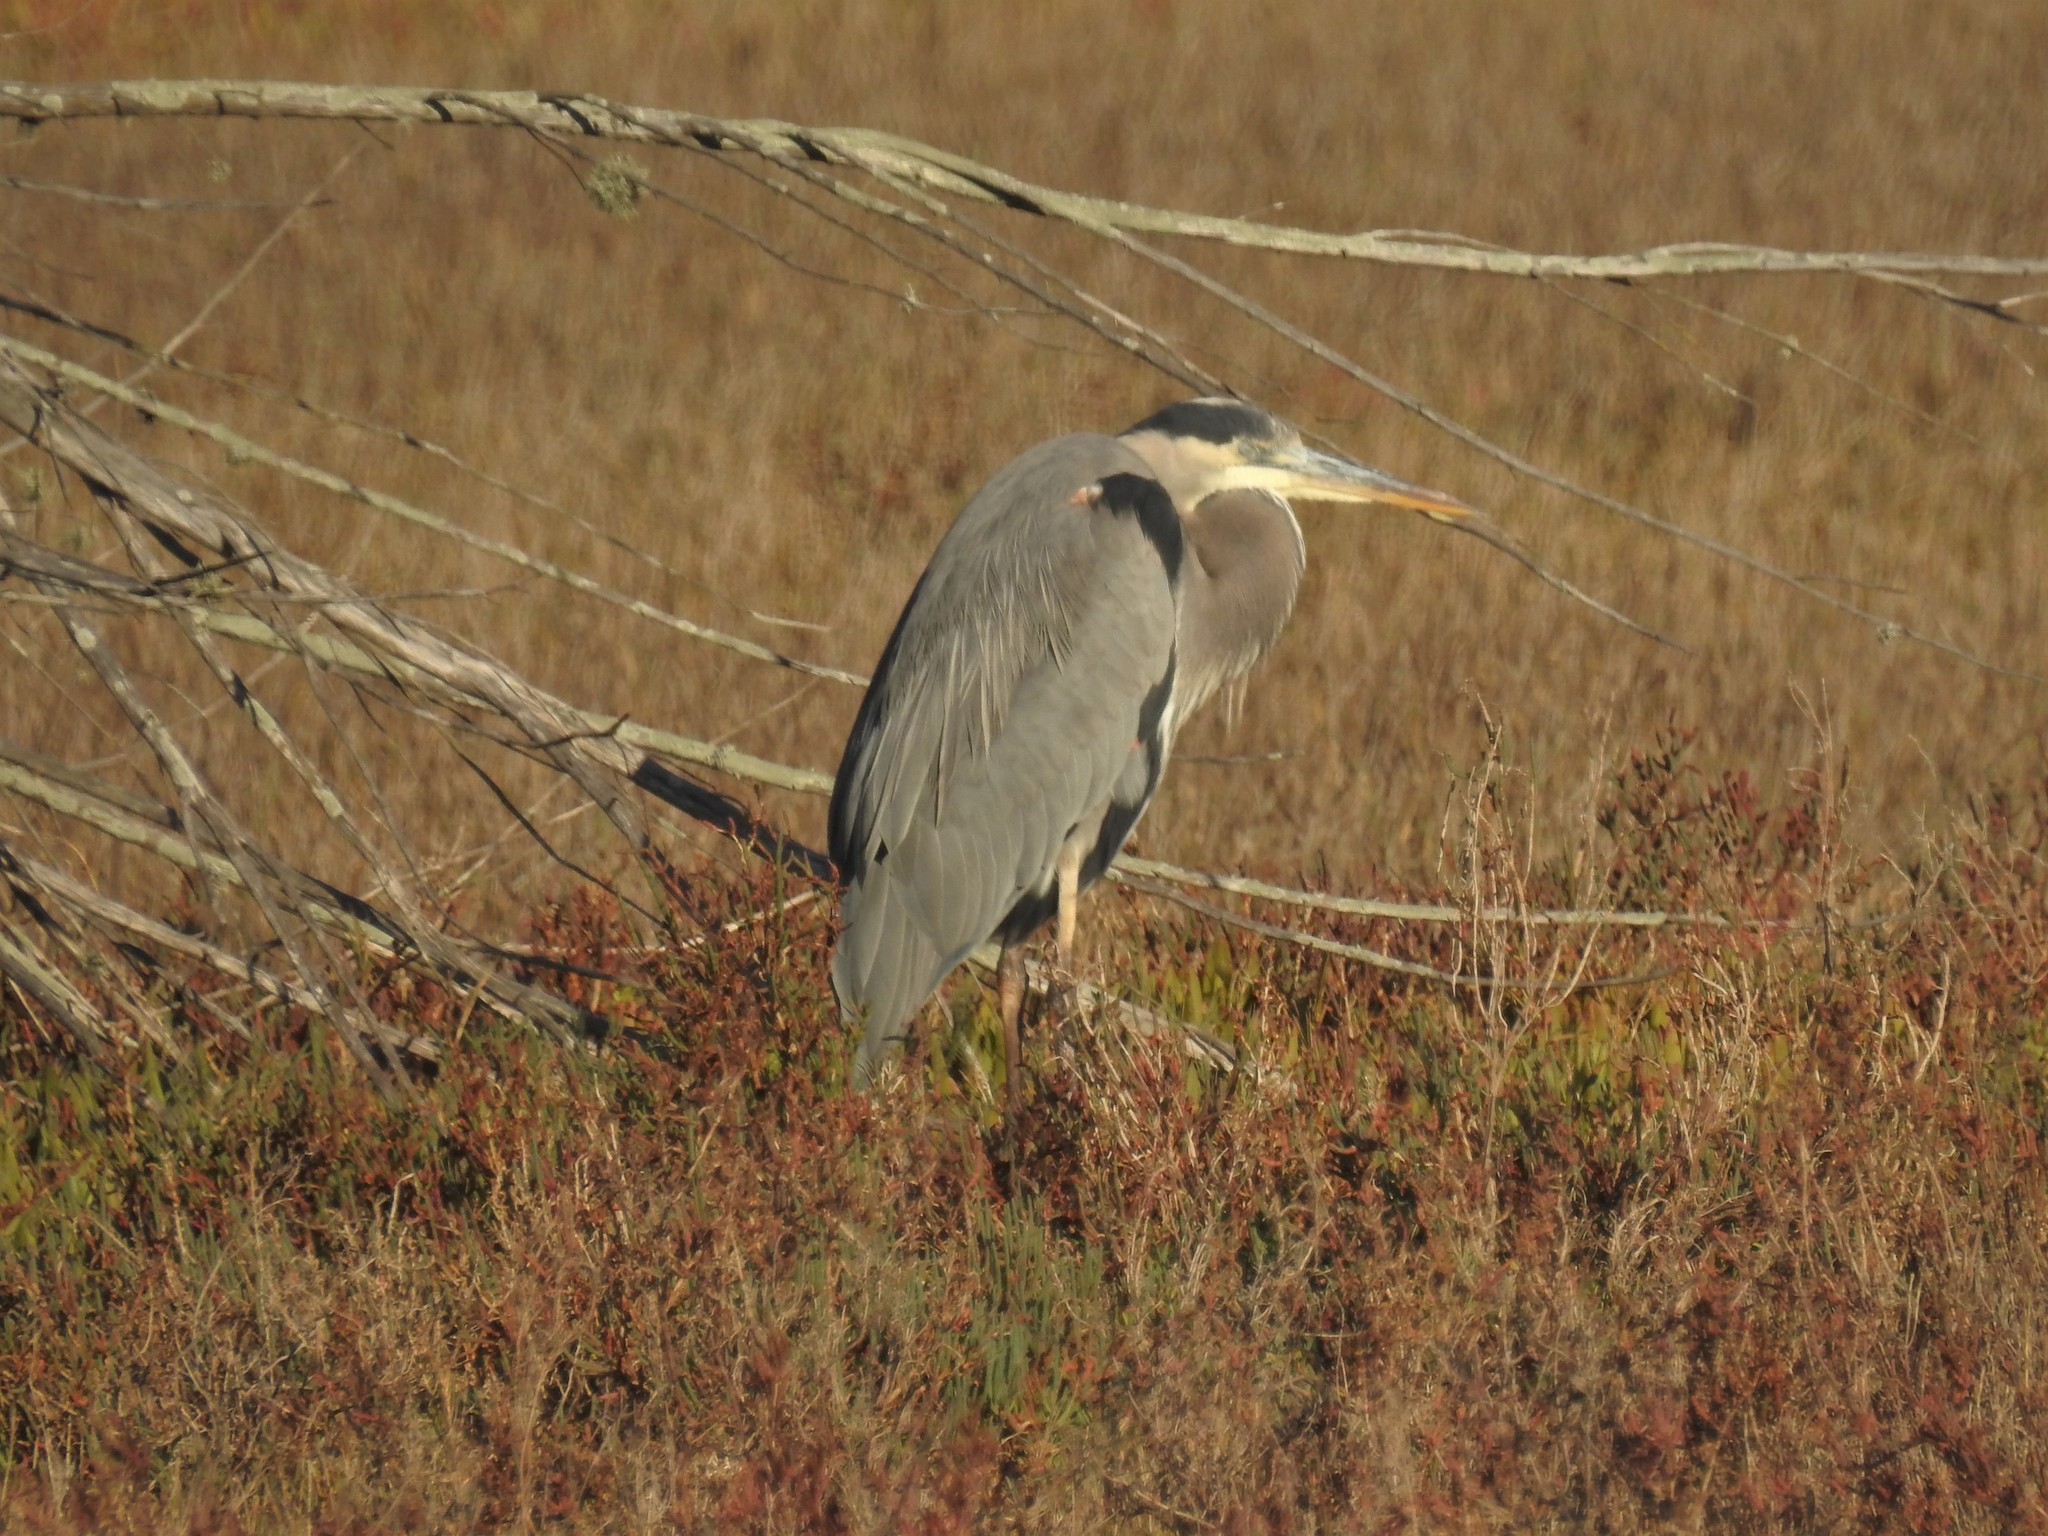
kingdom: Animalia
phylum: Chordata
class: Aves
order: Pelecaniformes
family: Ardeidae
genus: Ardea
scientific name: Ardea herodias
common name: Great blue heron
